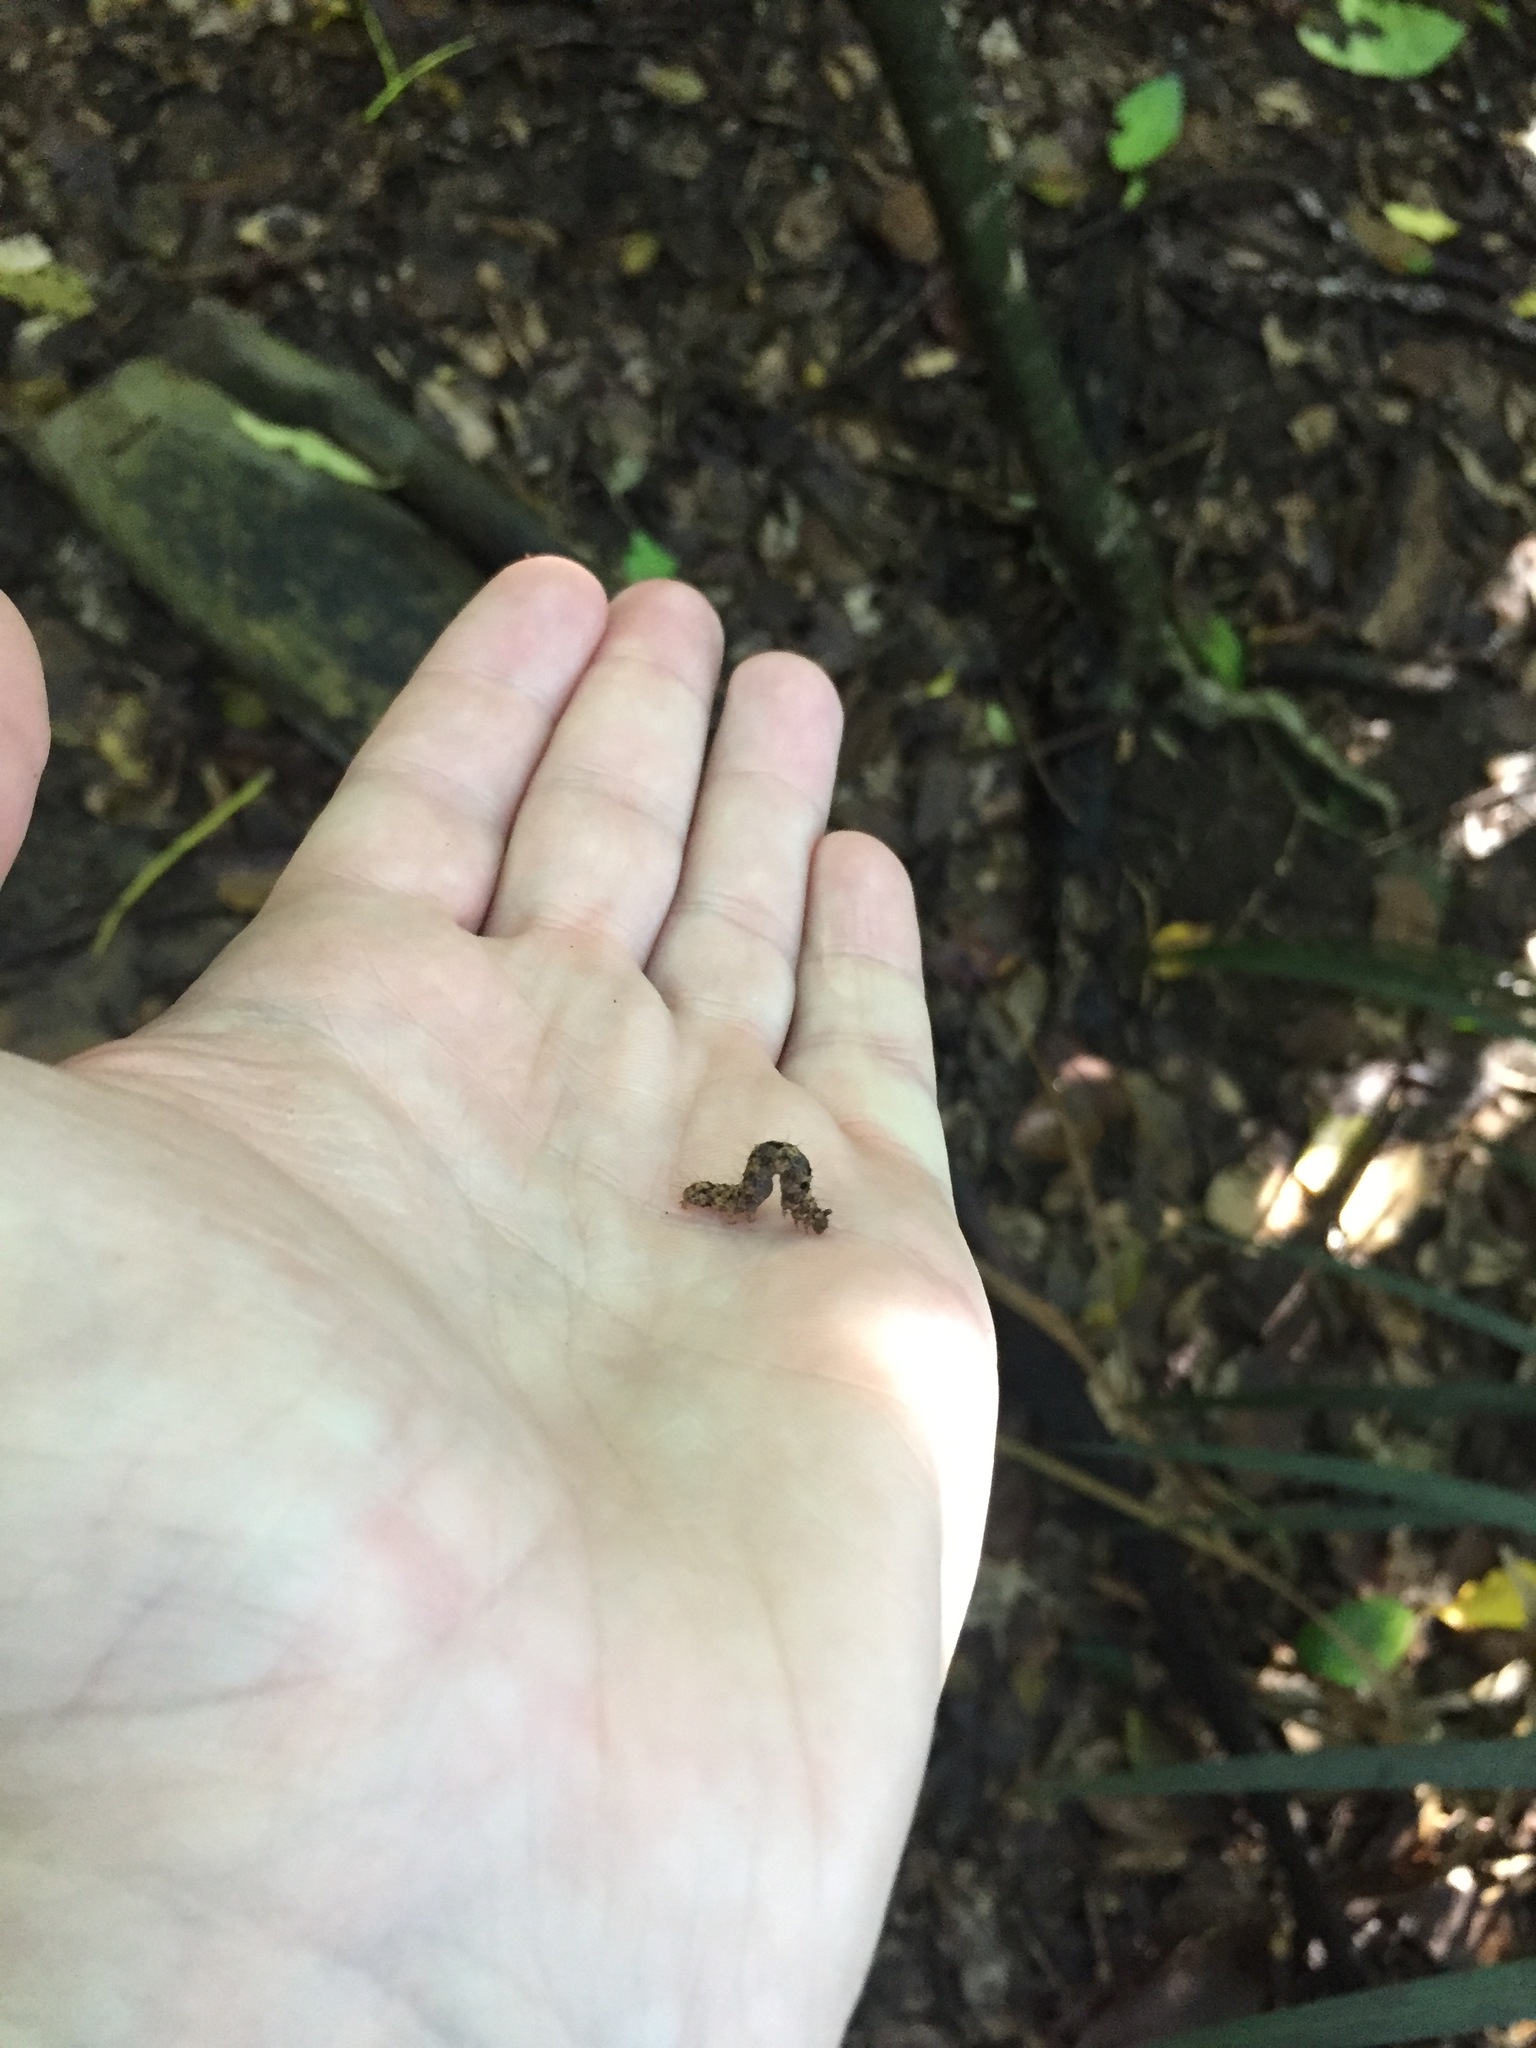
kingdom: Animalia
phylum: Arthropoda
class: Insecta
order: Lepidoptera
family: Erebidae
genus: Artigisa
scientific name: Artigisa melanephele
